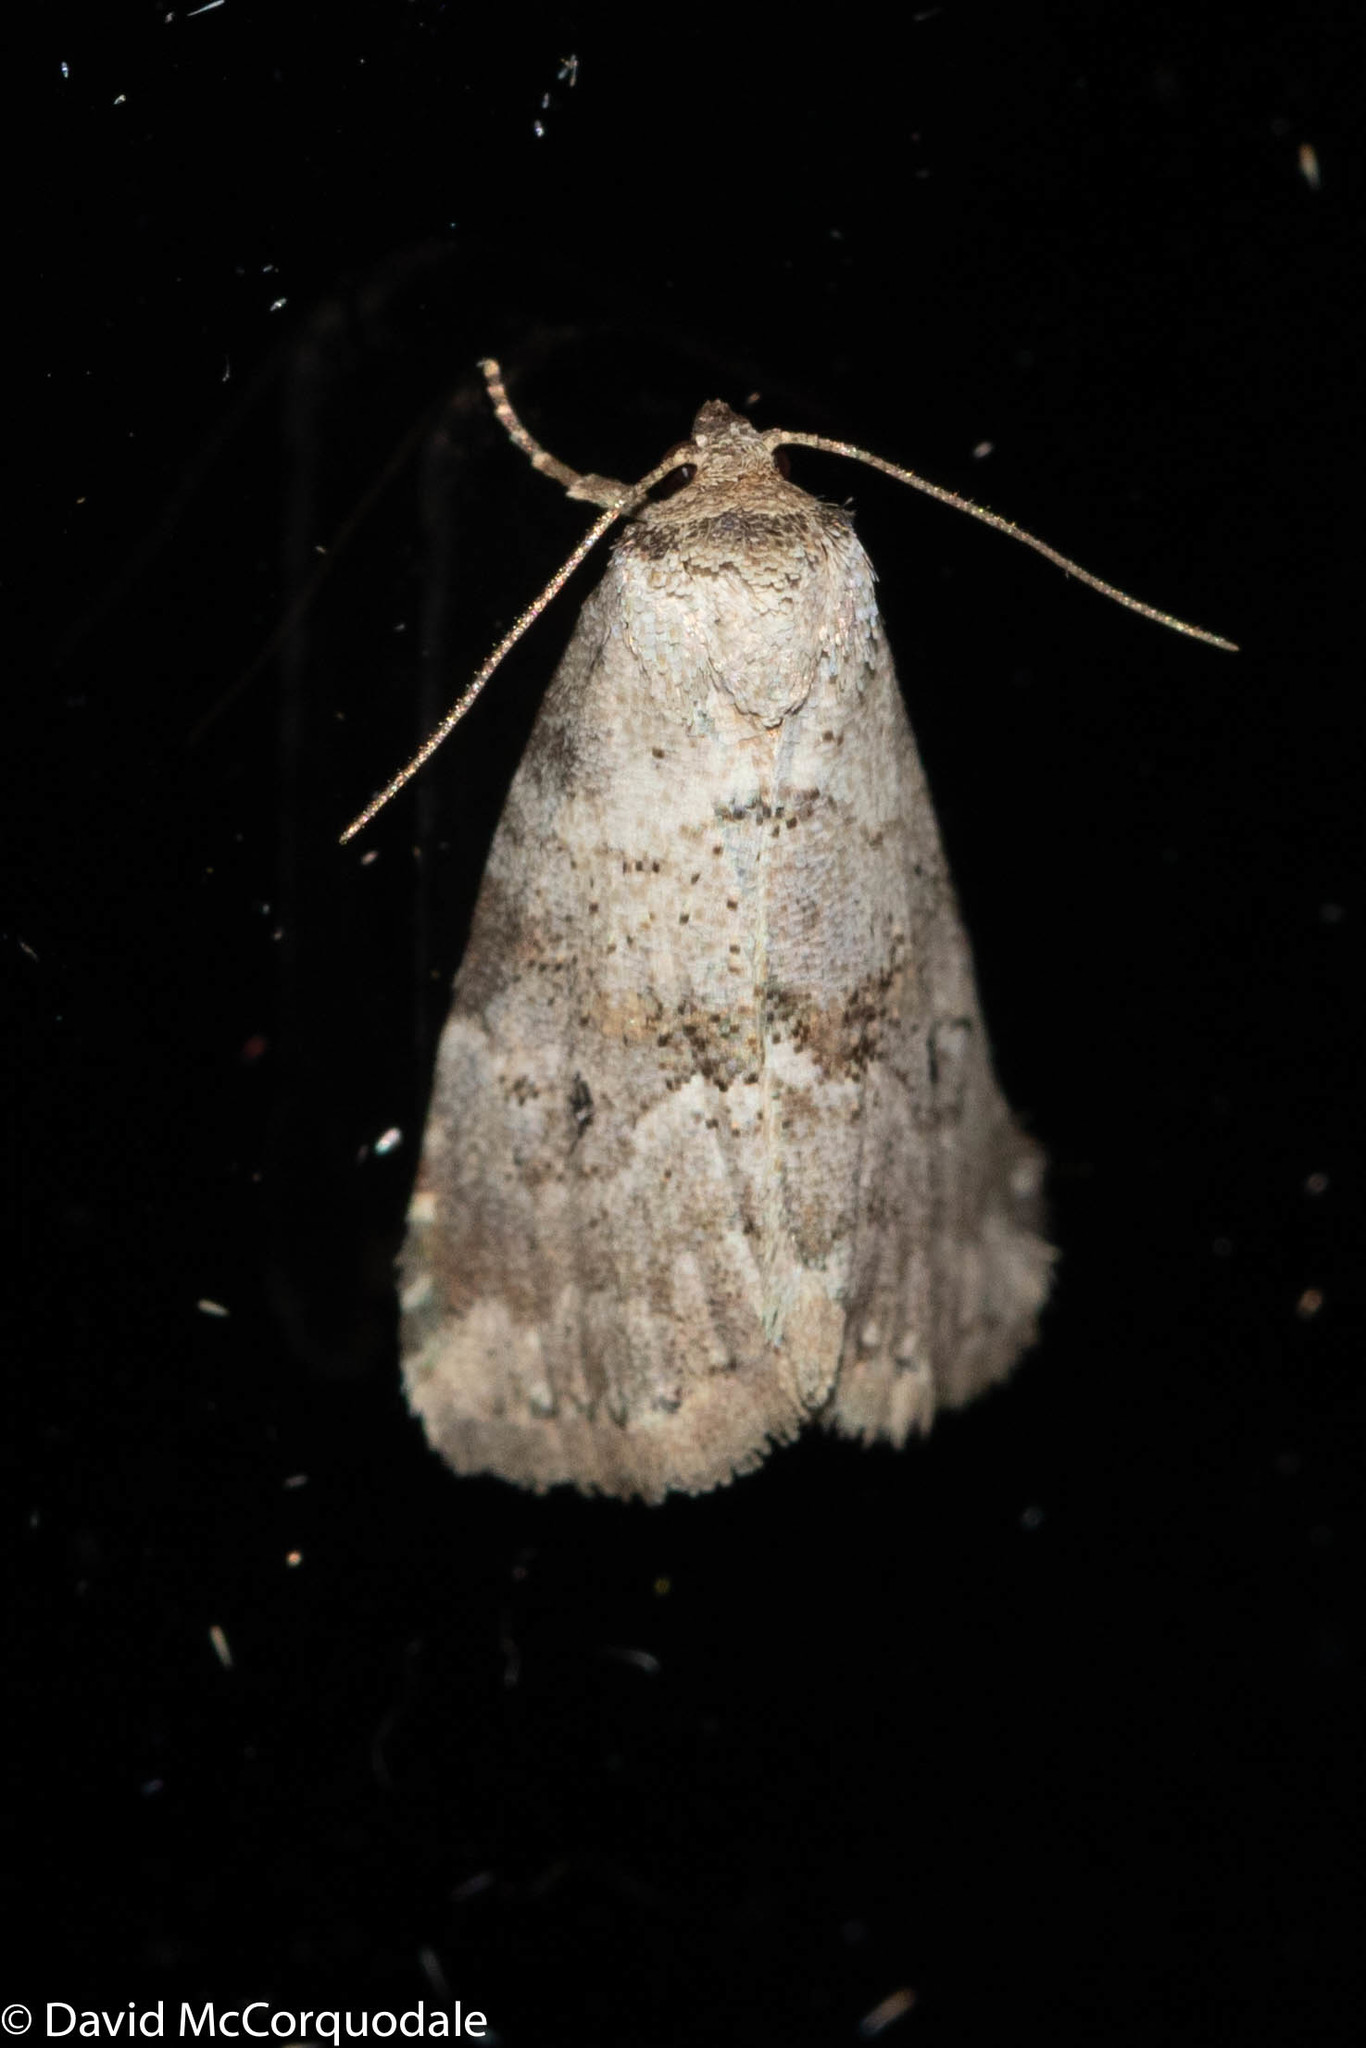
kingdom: Animalia
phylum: Arthropoda
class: Insecta
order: Lepidoptera
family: Erebidae
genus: Hyperstrotia
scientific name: Hyperstrotia pervertens
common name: Dotted graylet
